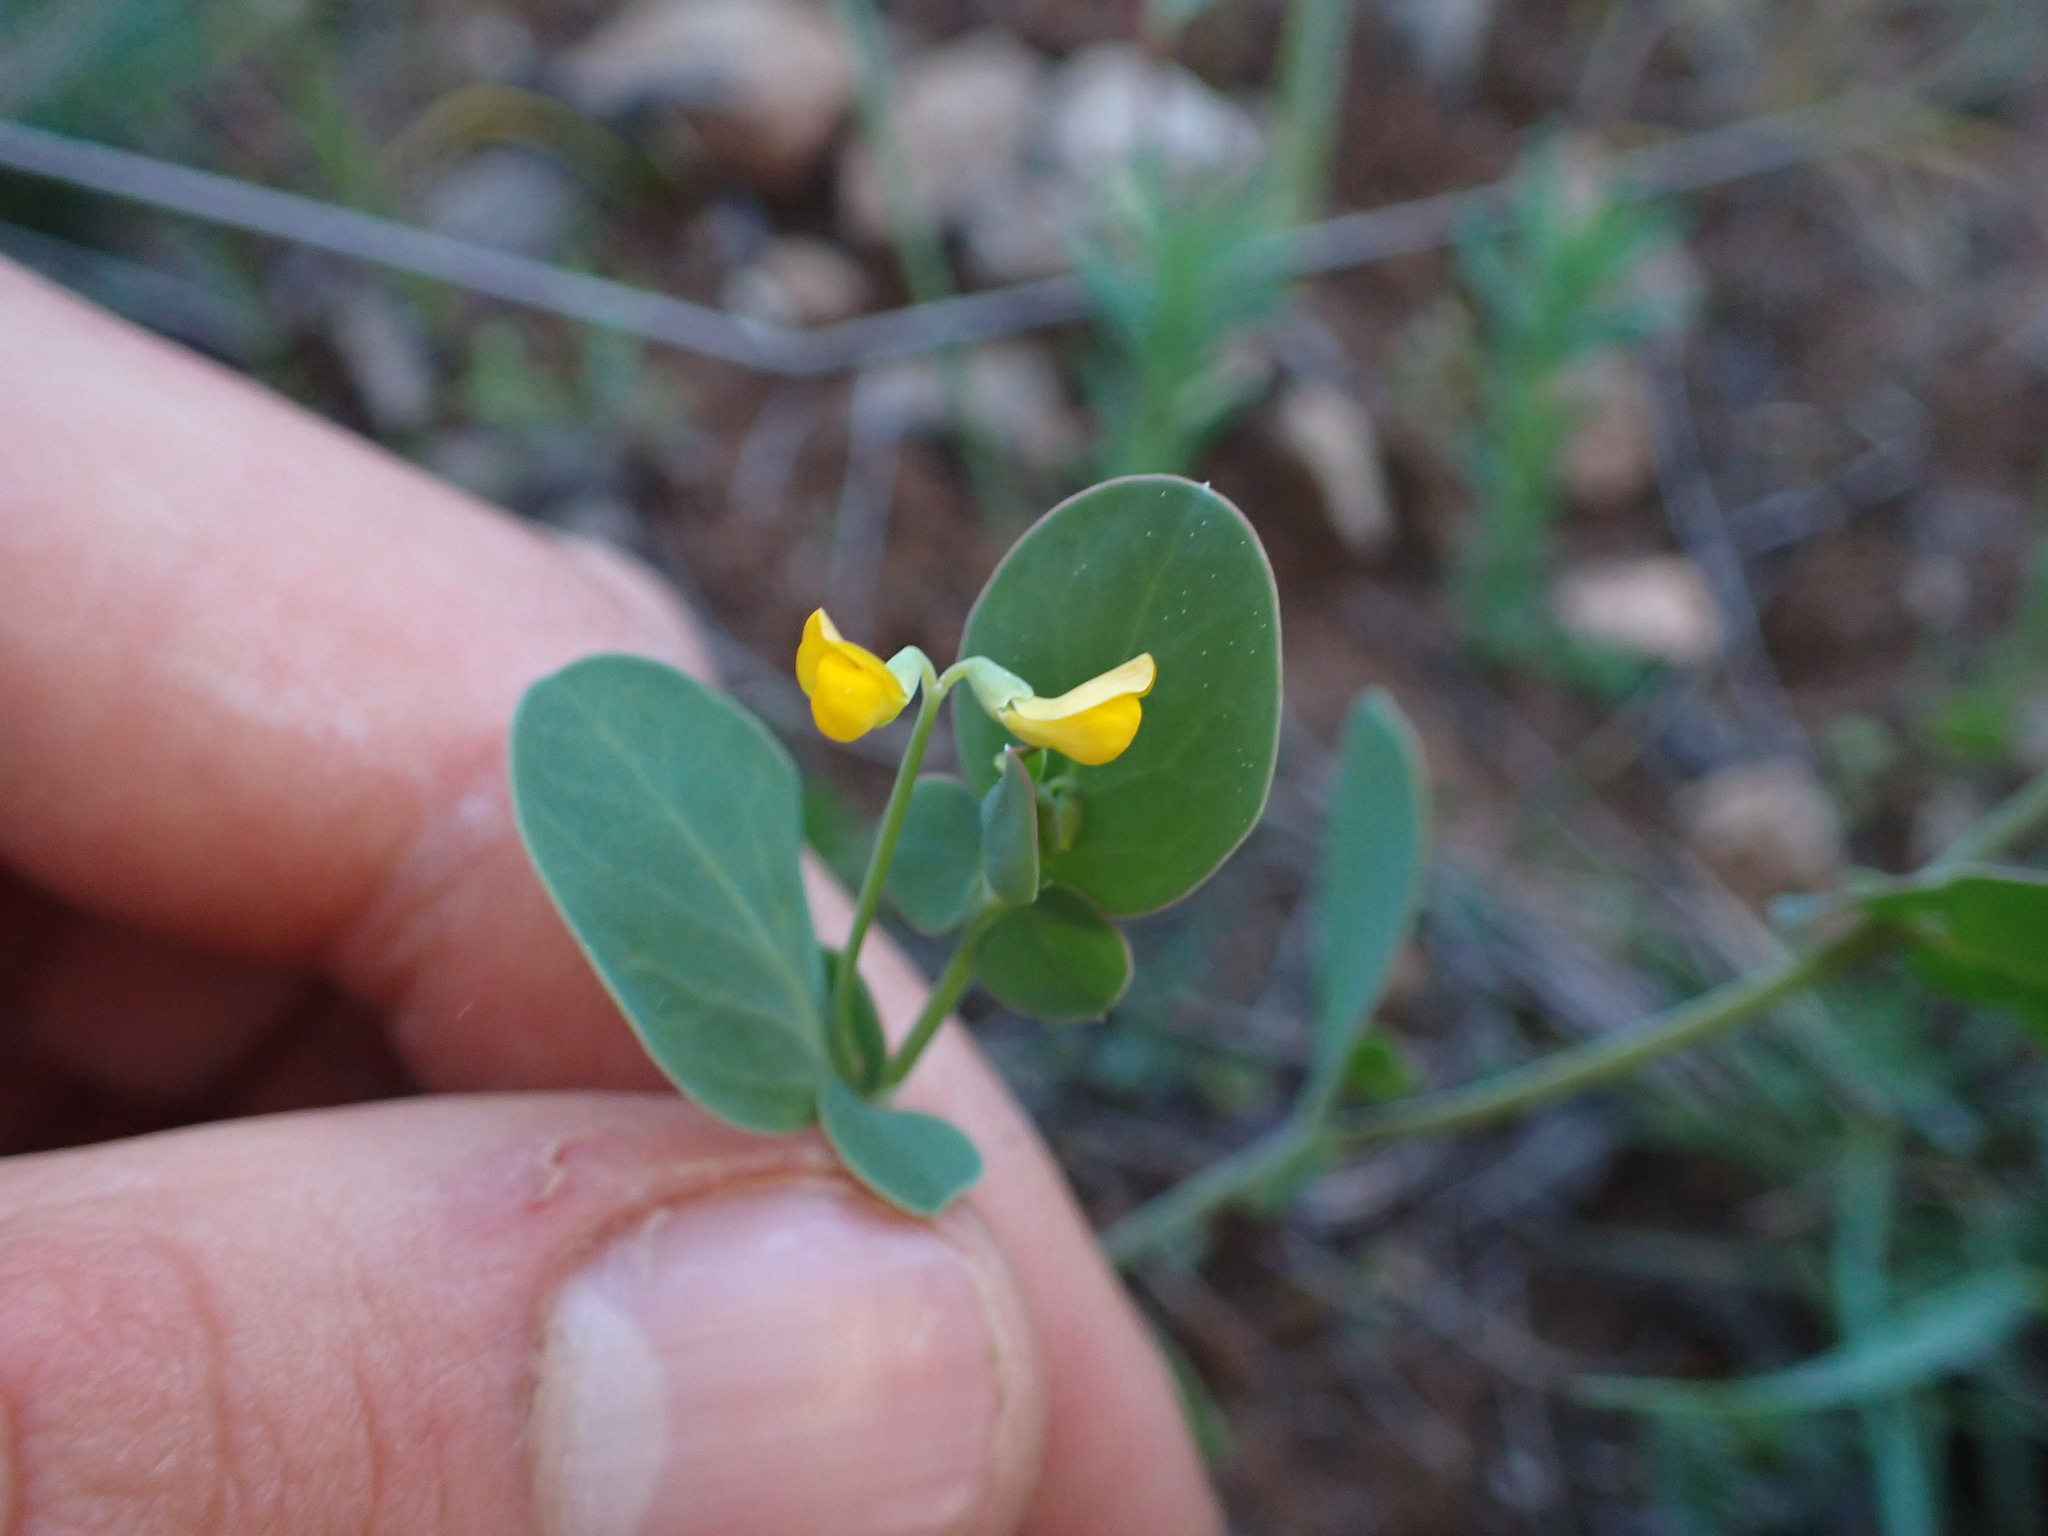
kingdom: Plantae
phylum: Tracheophyta
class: Magnoliopsida
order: Fabales
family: Fabaceae
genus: Coronilla
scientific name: Coronilla scorpioides
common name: Annual scorpion-vetch
